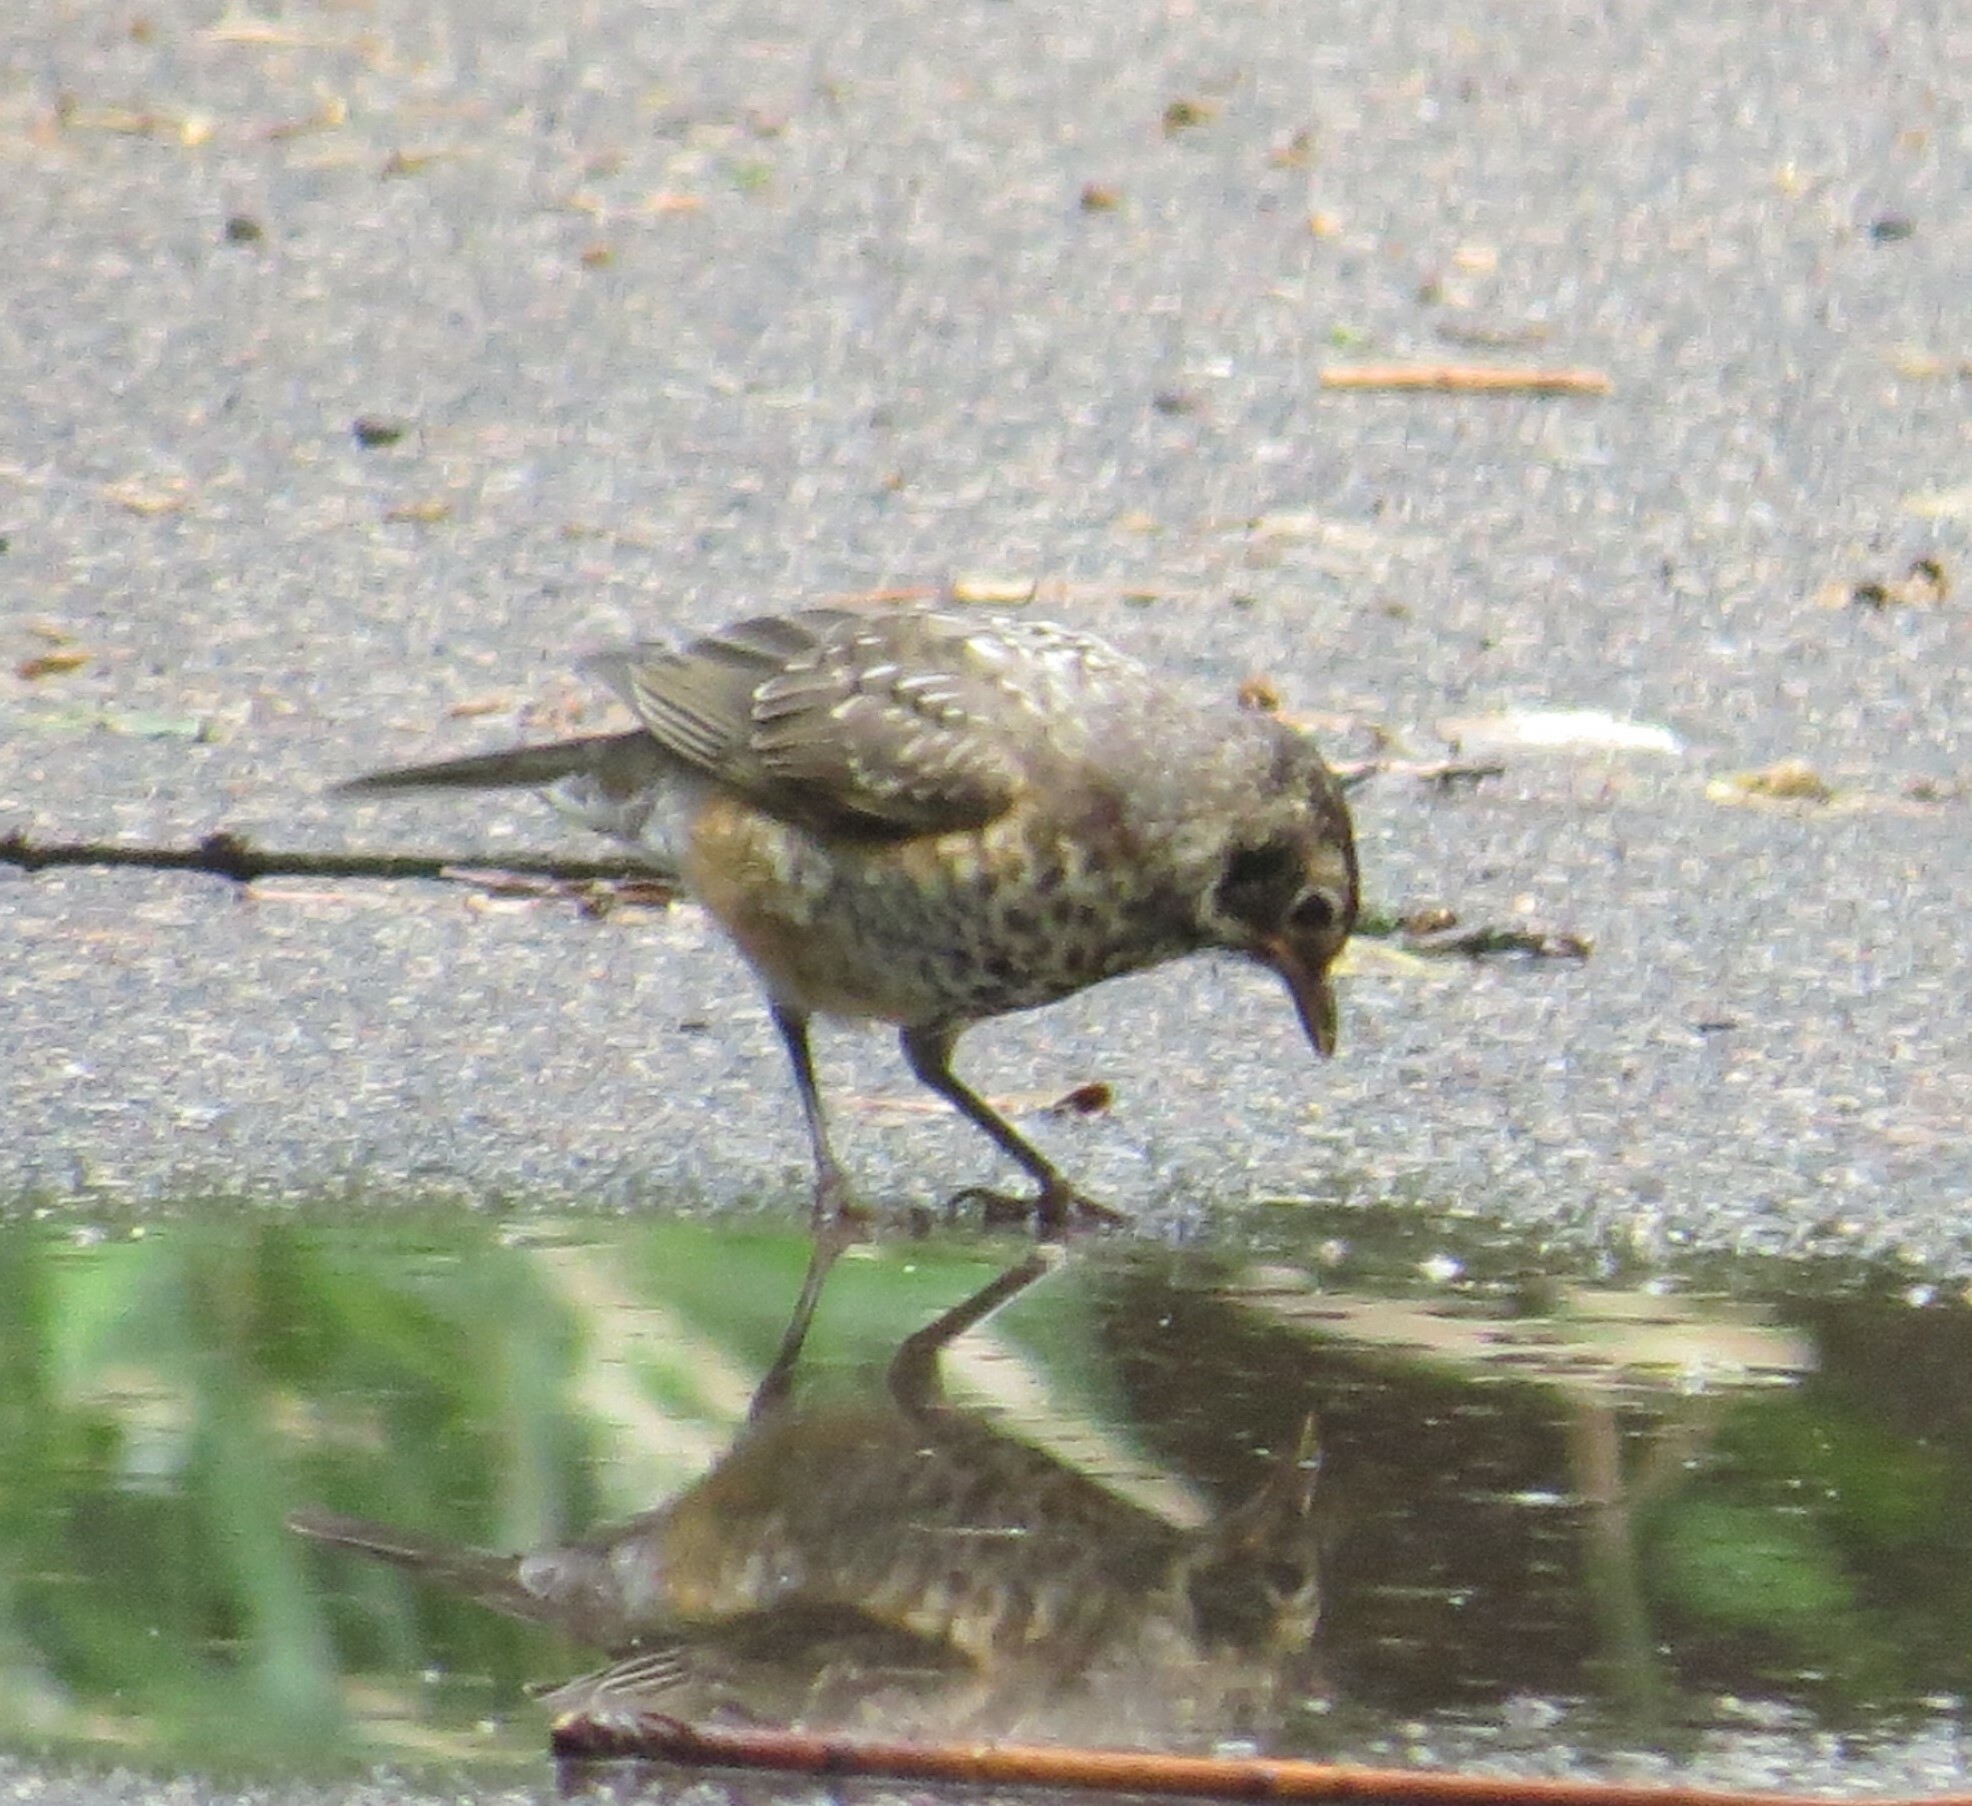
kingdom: Animalia
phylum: Chordata
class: Aves
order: Passeriformes
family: Turdidae
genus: Turdus
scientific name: Turdus migratorius
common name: American robin
